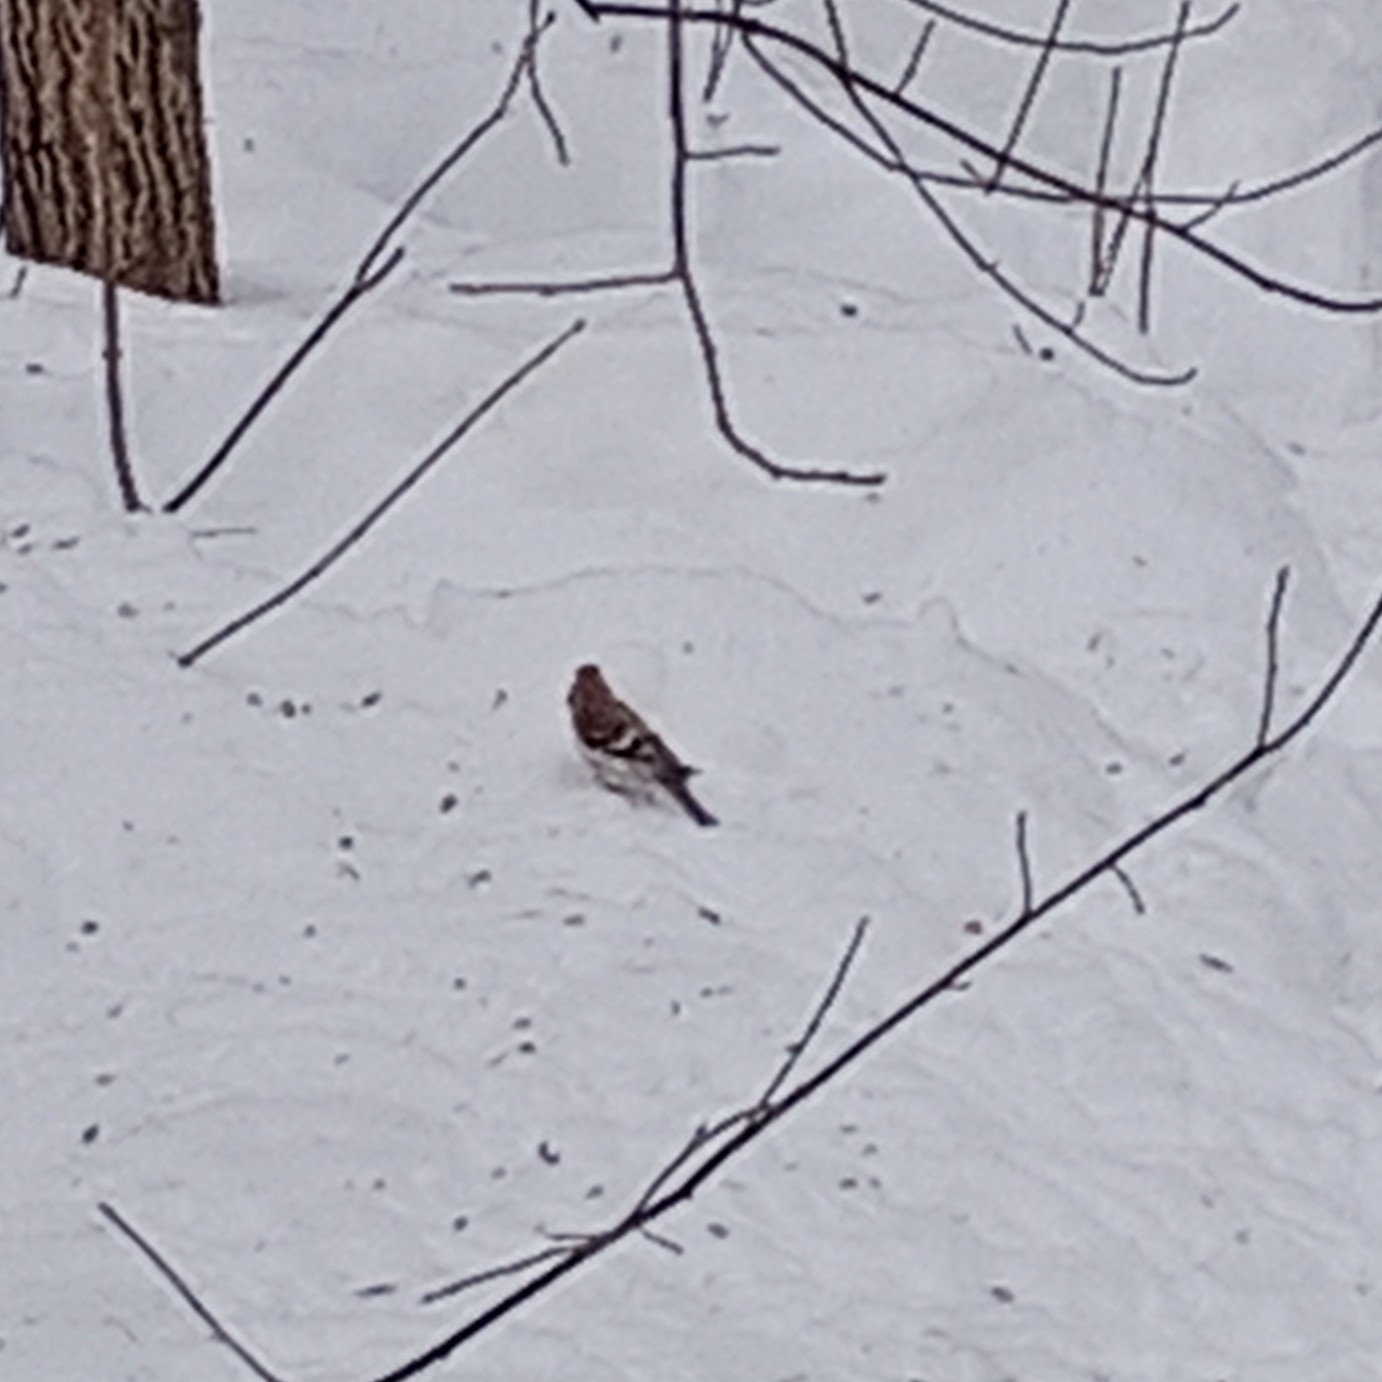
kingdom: Animalia
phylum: Chordata
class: Aves
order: Passeriformes
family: Fringillidae
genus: Acanthis
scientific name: Acanthis flammea
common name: Common redpoll
